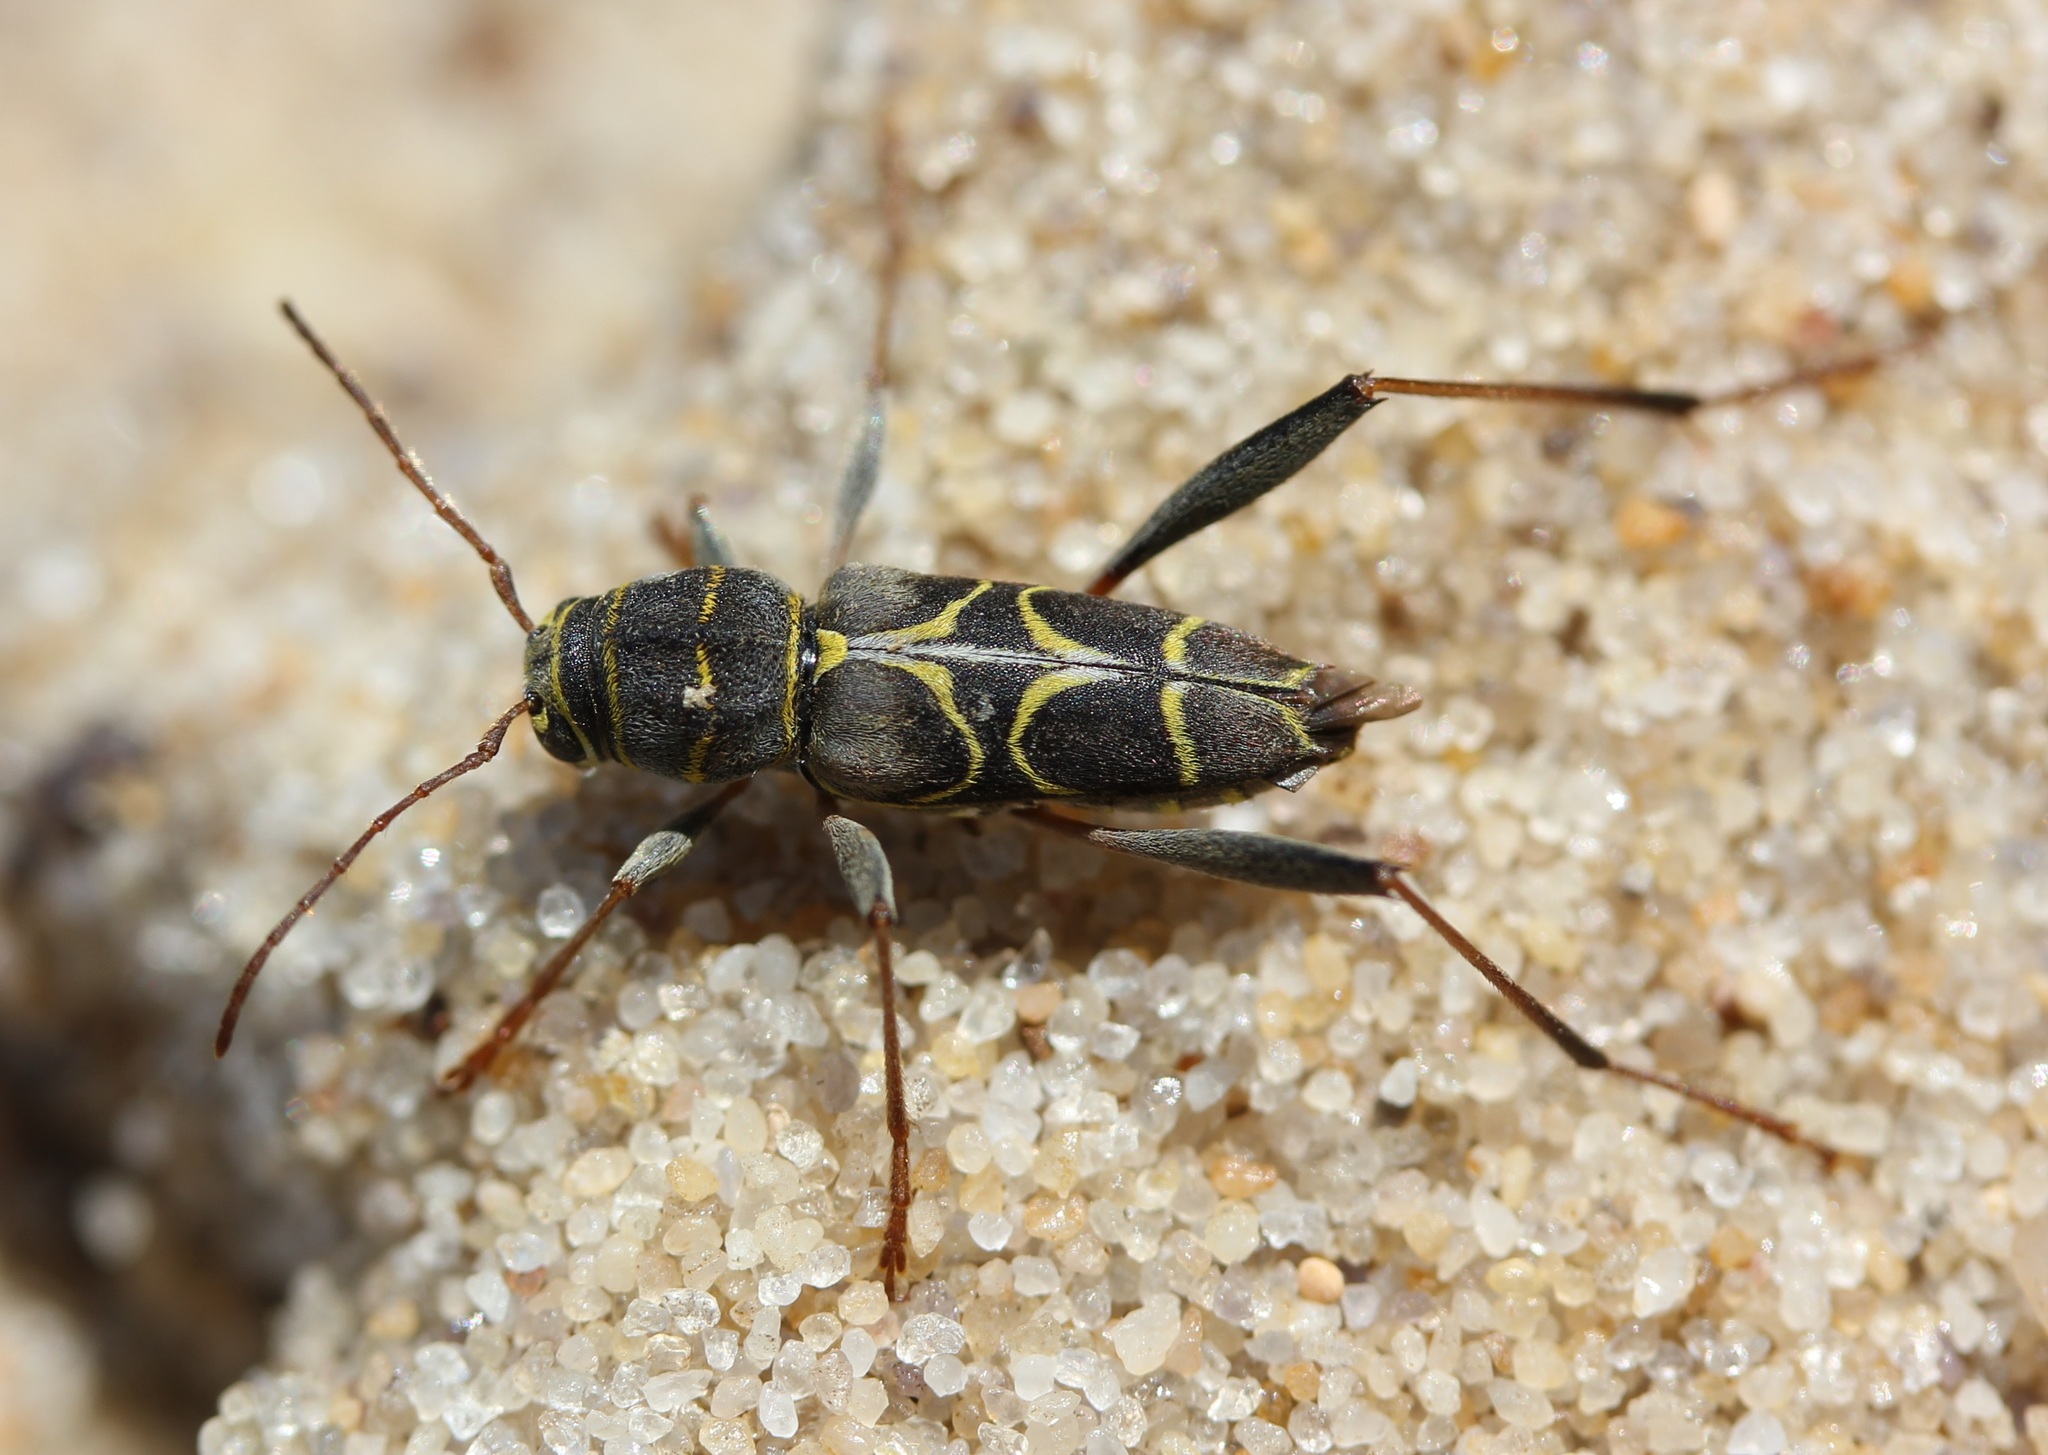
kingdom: Animalia
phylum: Arthropoda
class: Insecta
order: Coleoptera
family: Cerambycidae
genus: Neoclytus
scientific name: Neoclytus scutellaris
